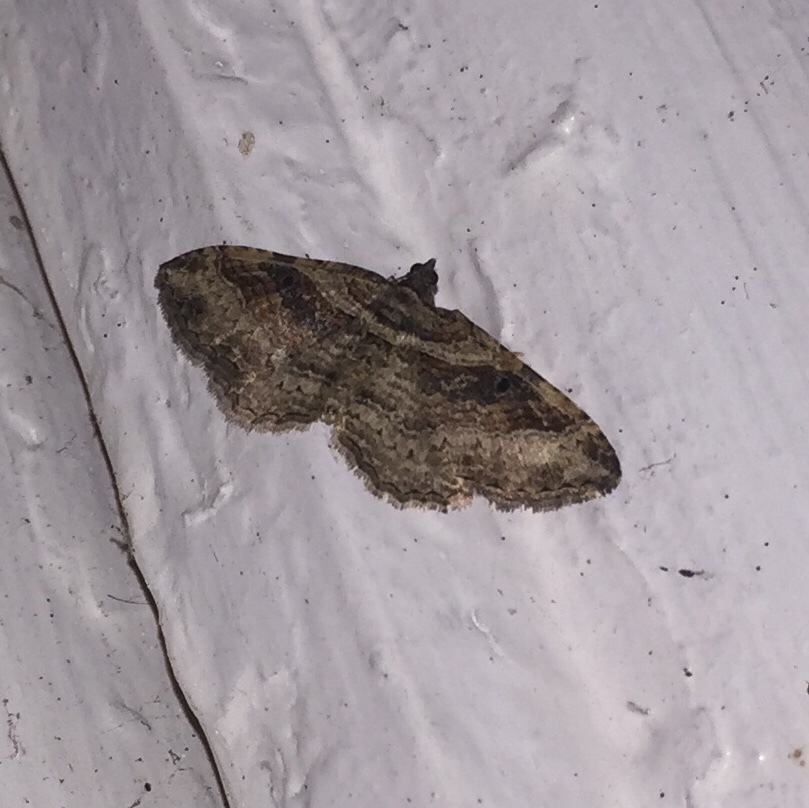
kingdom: Animalia
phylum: Arthropoda
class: Insecta
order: Lepidoptera
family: Geometridae
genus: Costaconvexa
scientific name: Costaconvexa centrostrigaria
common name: Bent-line carpet
